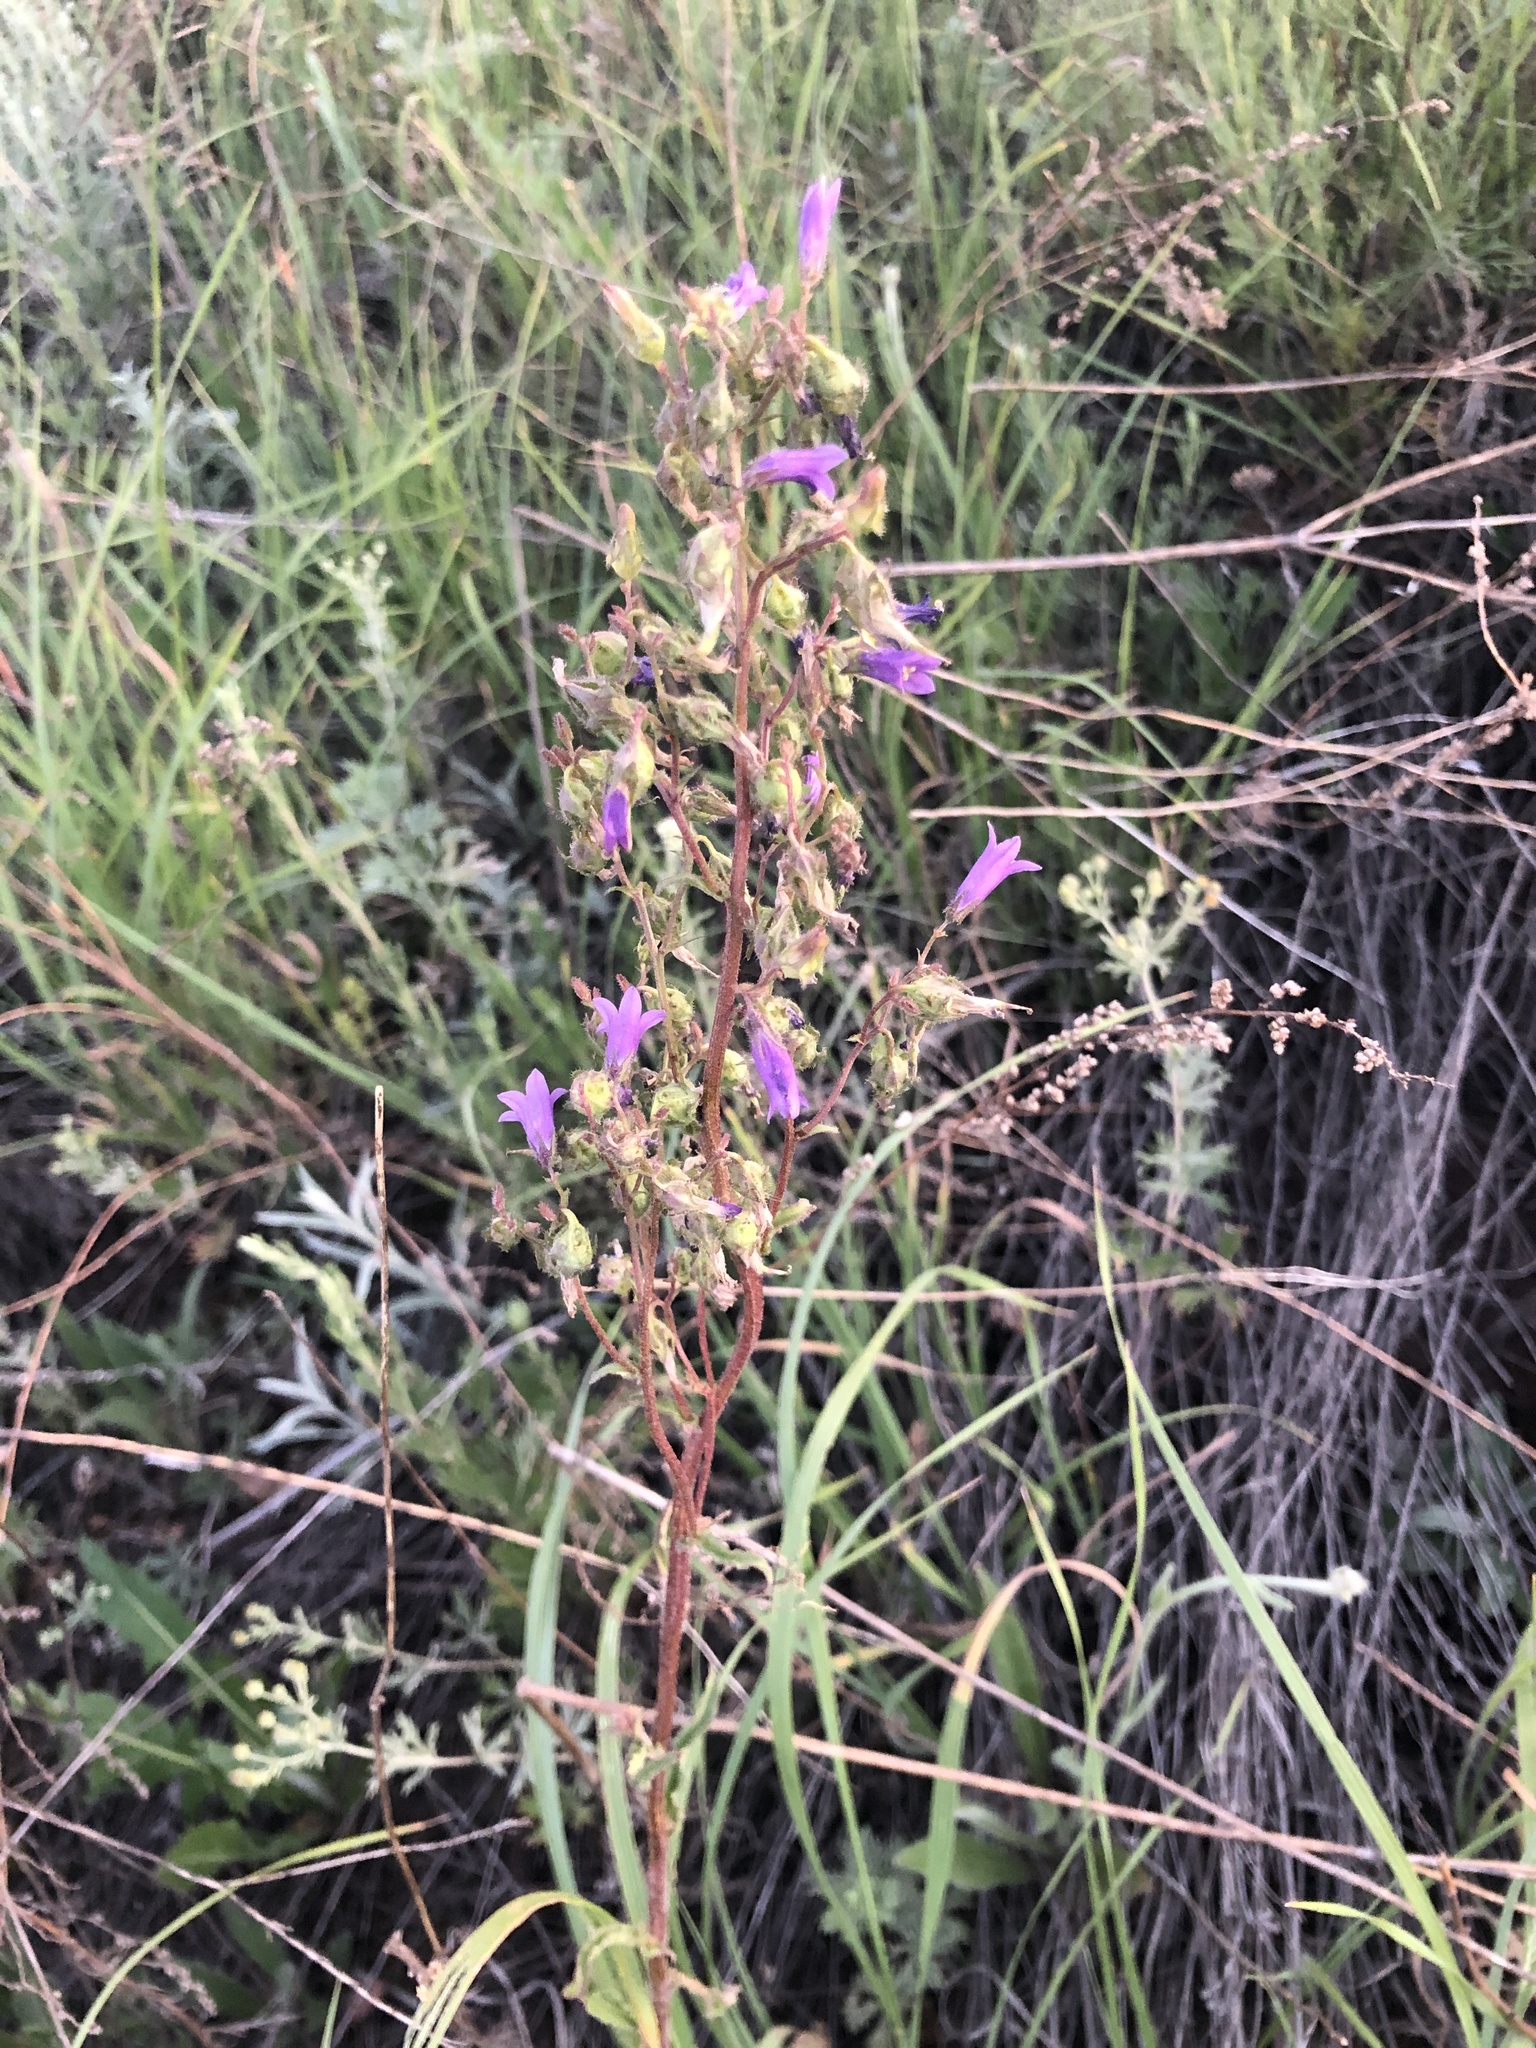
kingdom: Plantae
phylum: Tracheophyta
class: Magnoliopsida
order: Asterales
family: Campanulaceae
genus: Campanula
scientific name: Campanula sibirica
